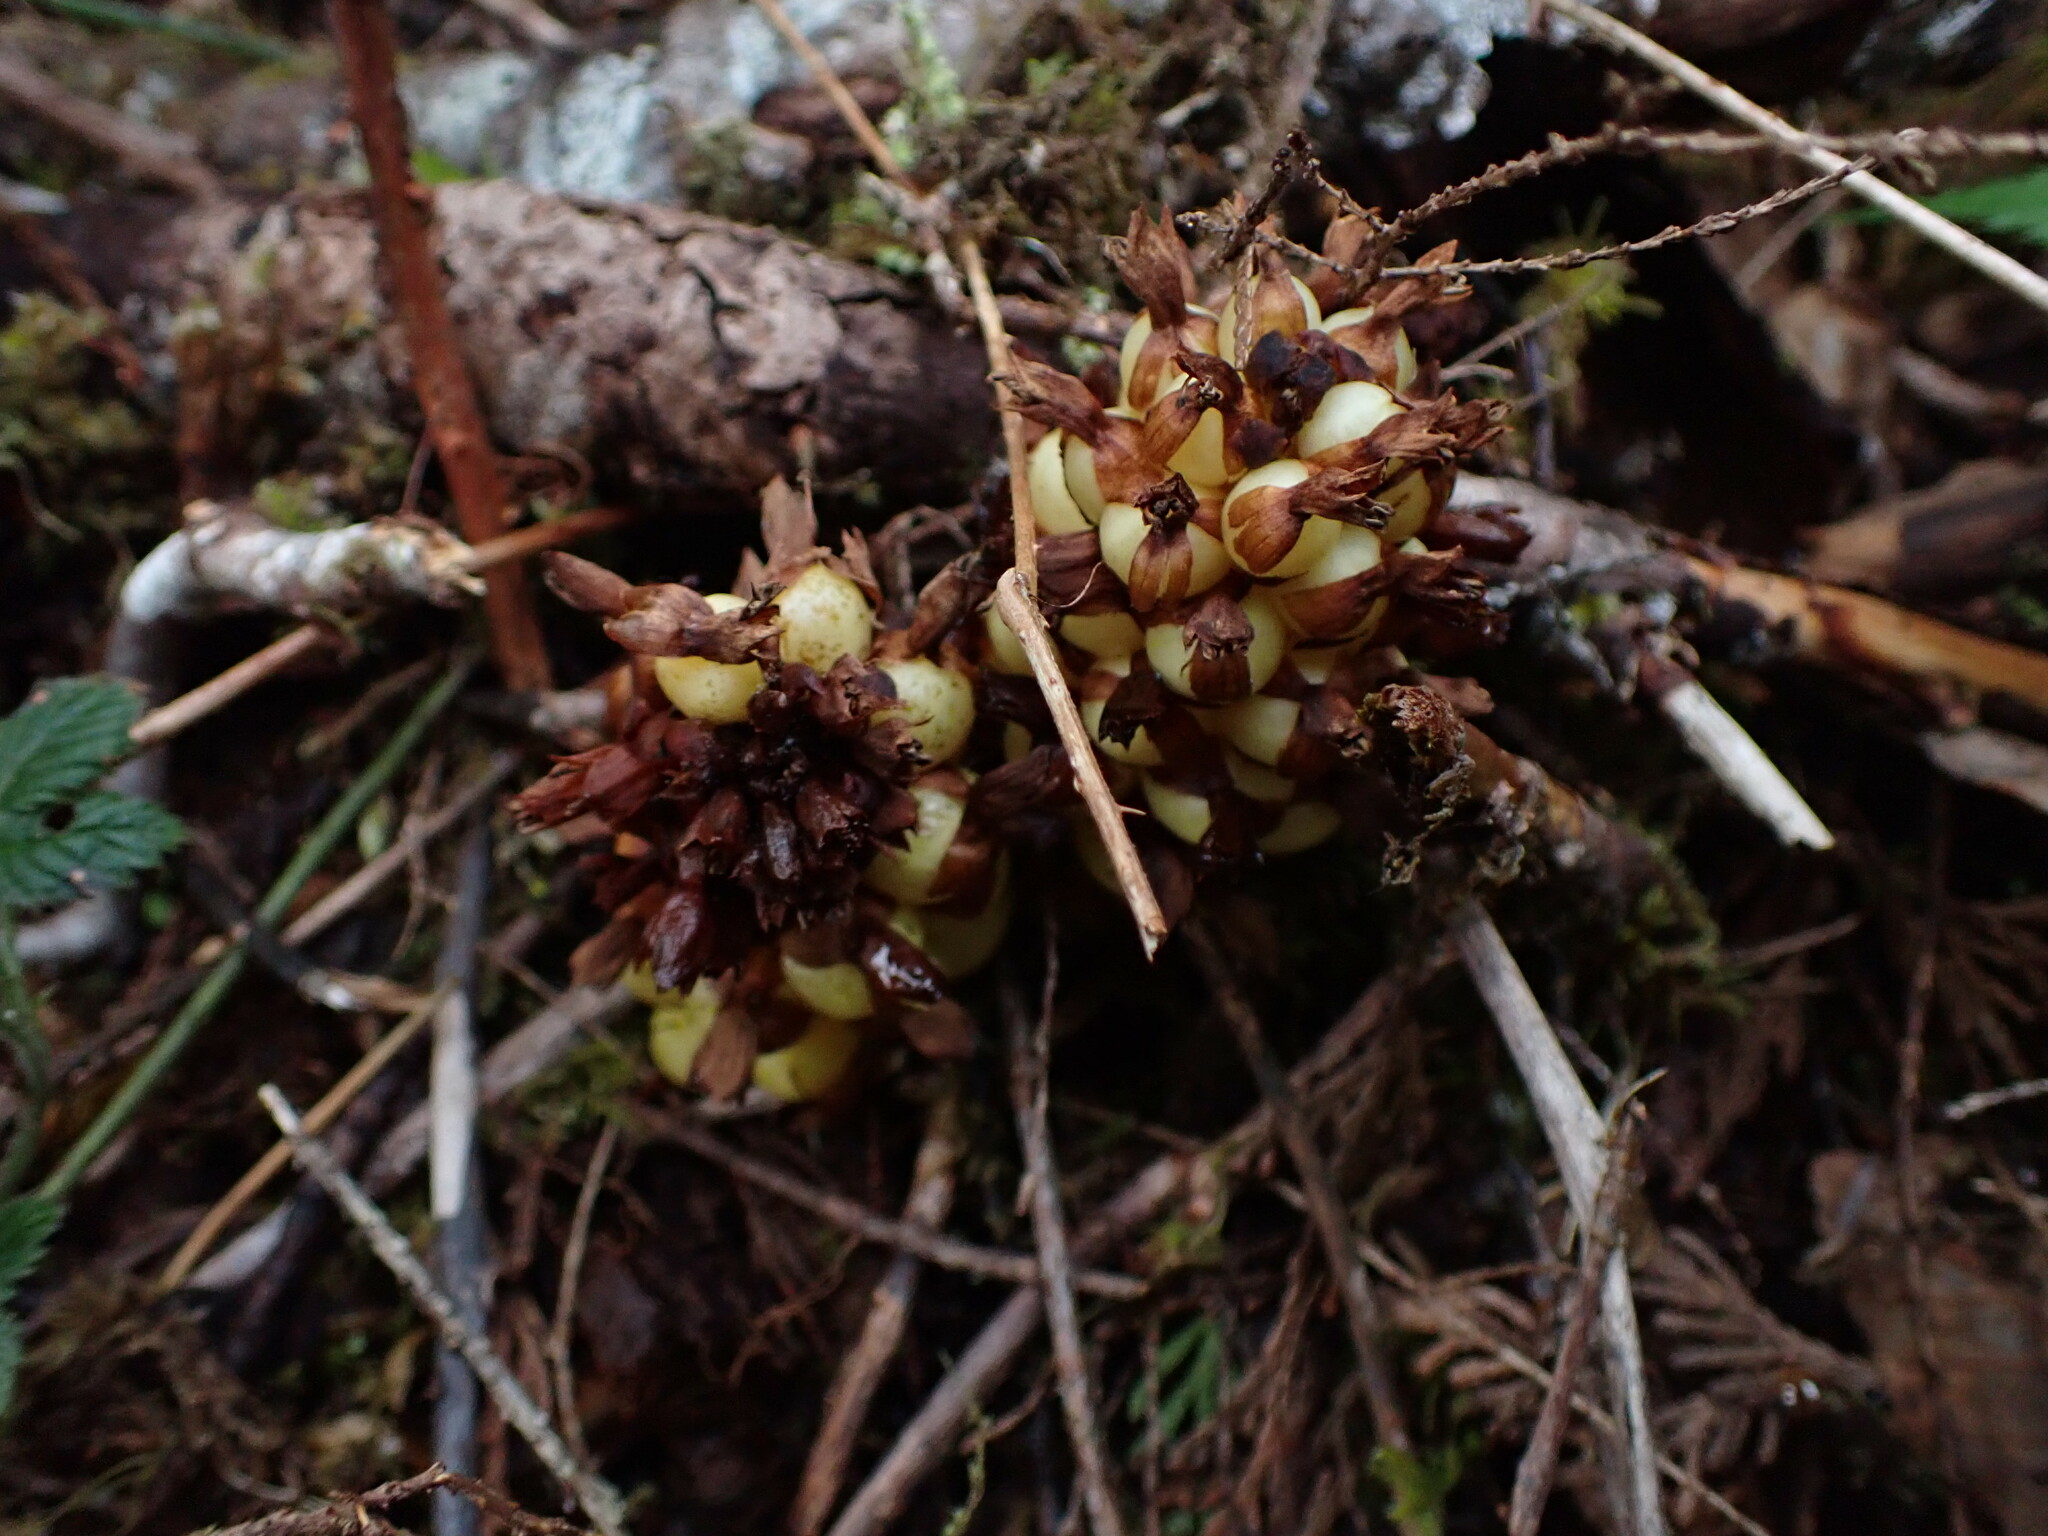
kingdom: Plantae
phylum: Tracheophyta
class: Magnoliopsida
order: Lamiales
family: Orobanchaceae
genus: Kopsiopsis
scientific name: Kopsiopsis hookeri
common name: Hooker's groundcone
